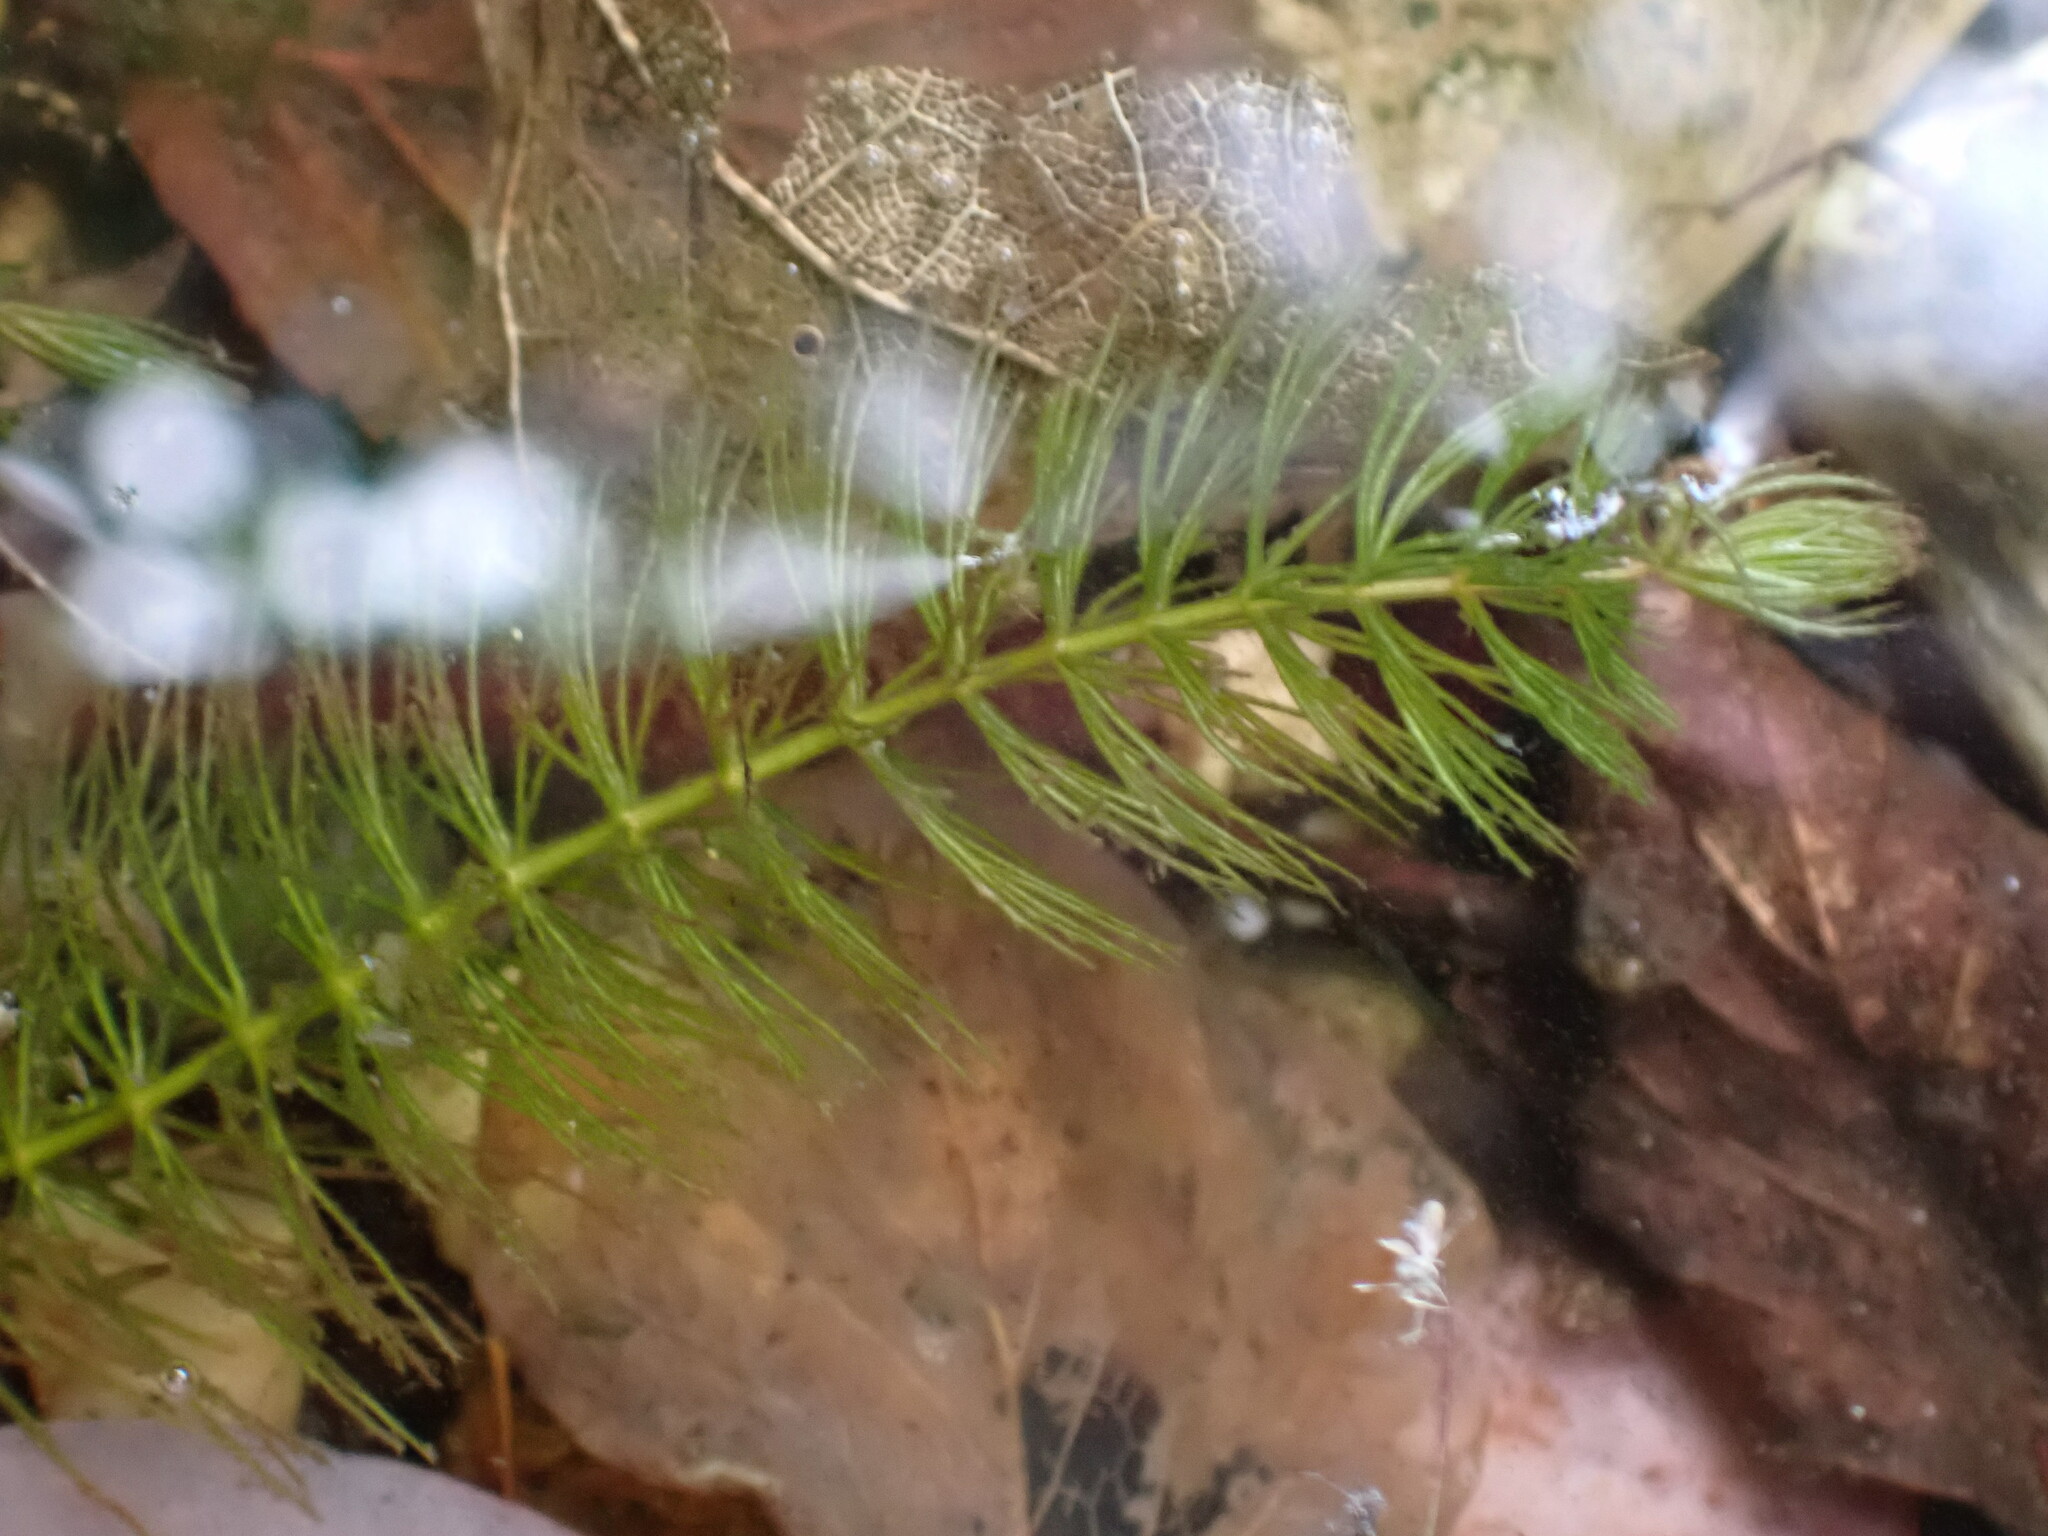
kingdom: Plantae
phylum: Tracheophyta
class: Magnoliopsida
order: Ceratophyllales
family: Ceratophyllaceae
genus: Ceratophyllum
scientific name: Ceratophyllum demersum
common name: Rigid hornwort
